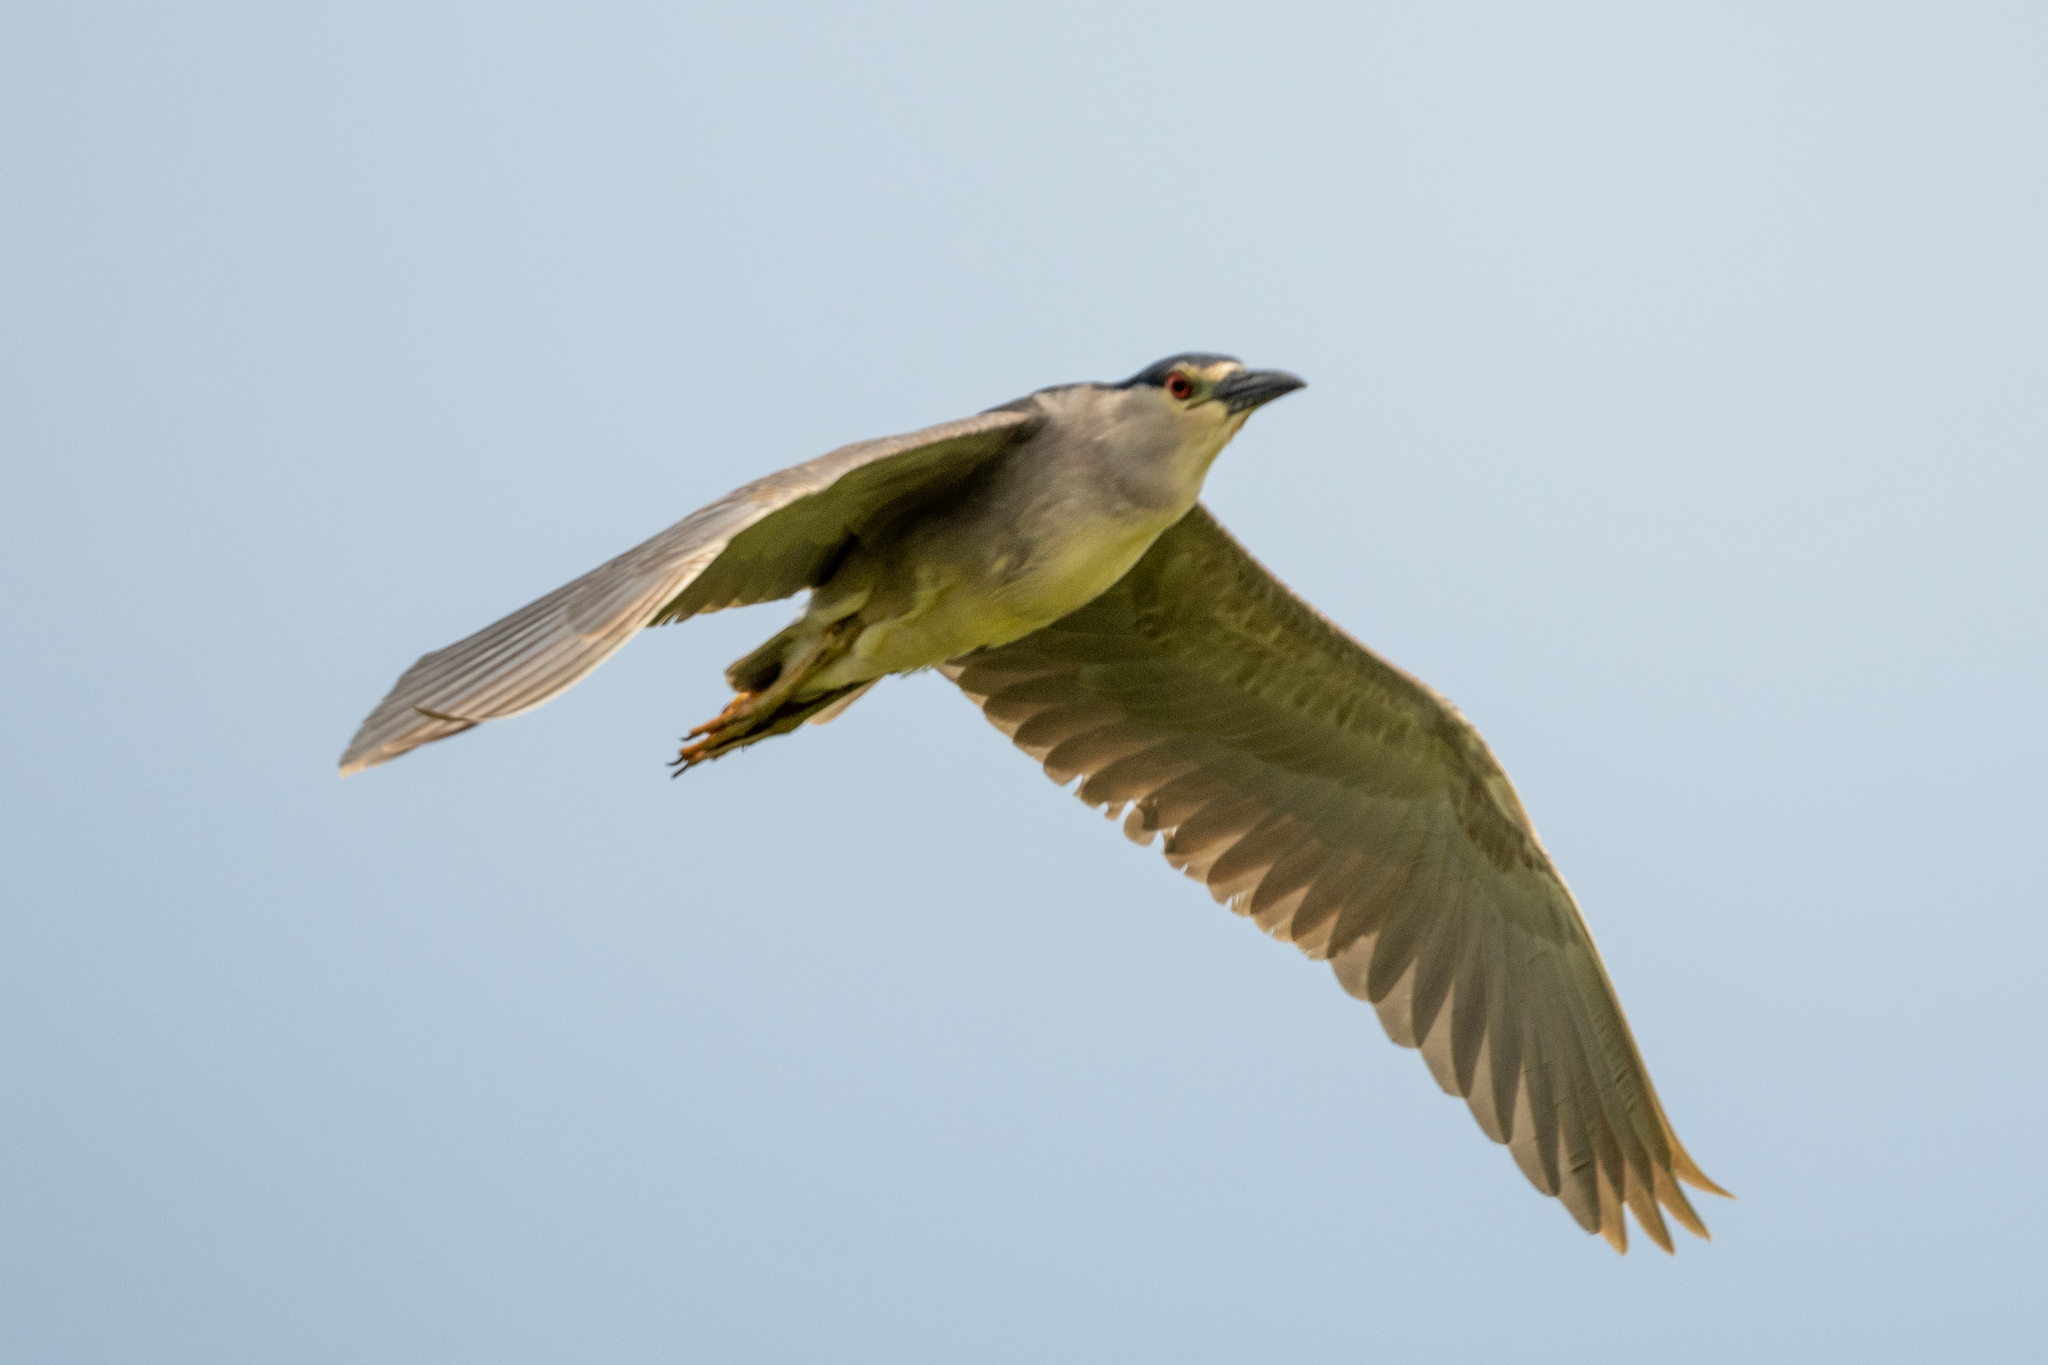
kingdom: Animalia
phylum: Chordata
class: Aves
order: Pelecaniformes
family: Ardeidae
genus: Nycticorax
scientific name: Nycticorax nycticorax
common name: Black-crowned night heron
